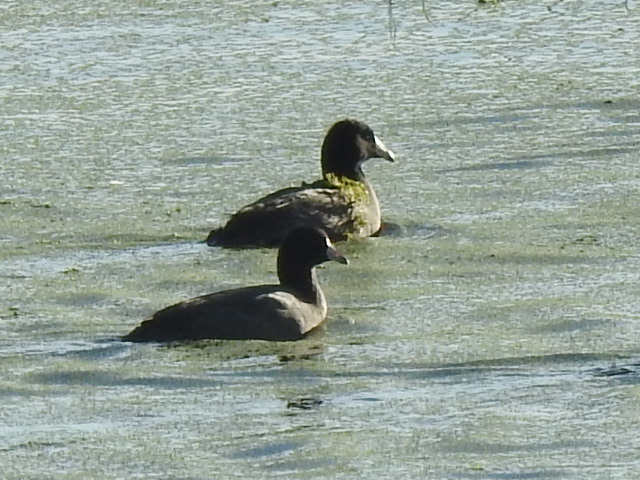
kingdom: Animalia
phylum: Chordata
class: Aves
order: Gruiformes
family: Rallidae
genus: Fulica
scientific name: Fulica americana
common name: American coot
